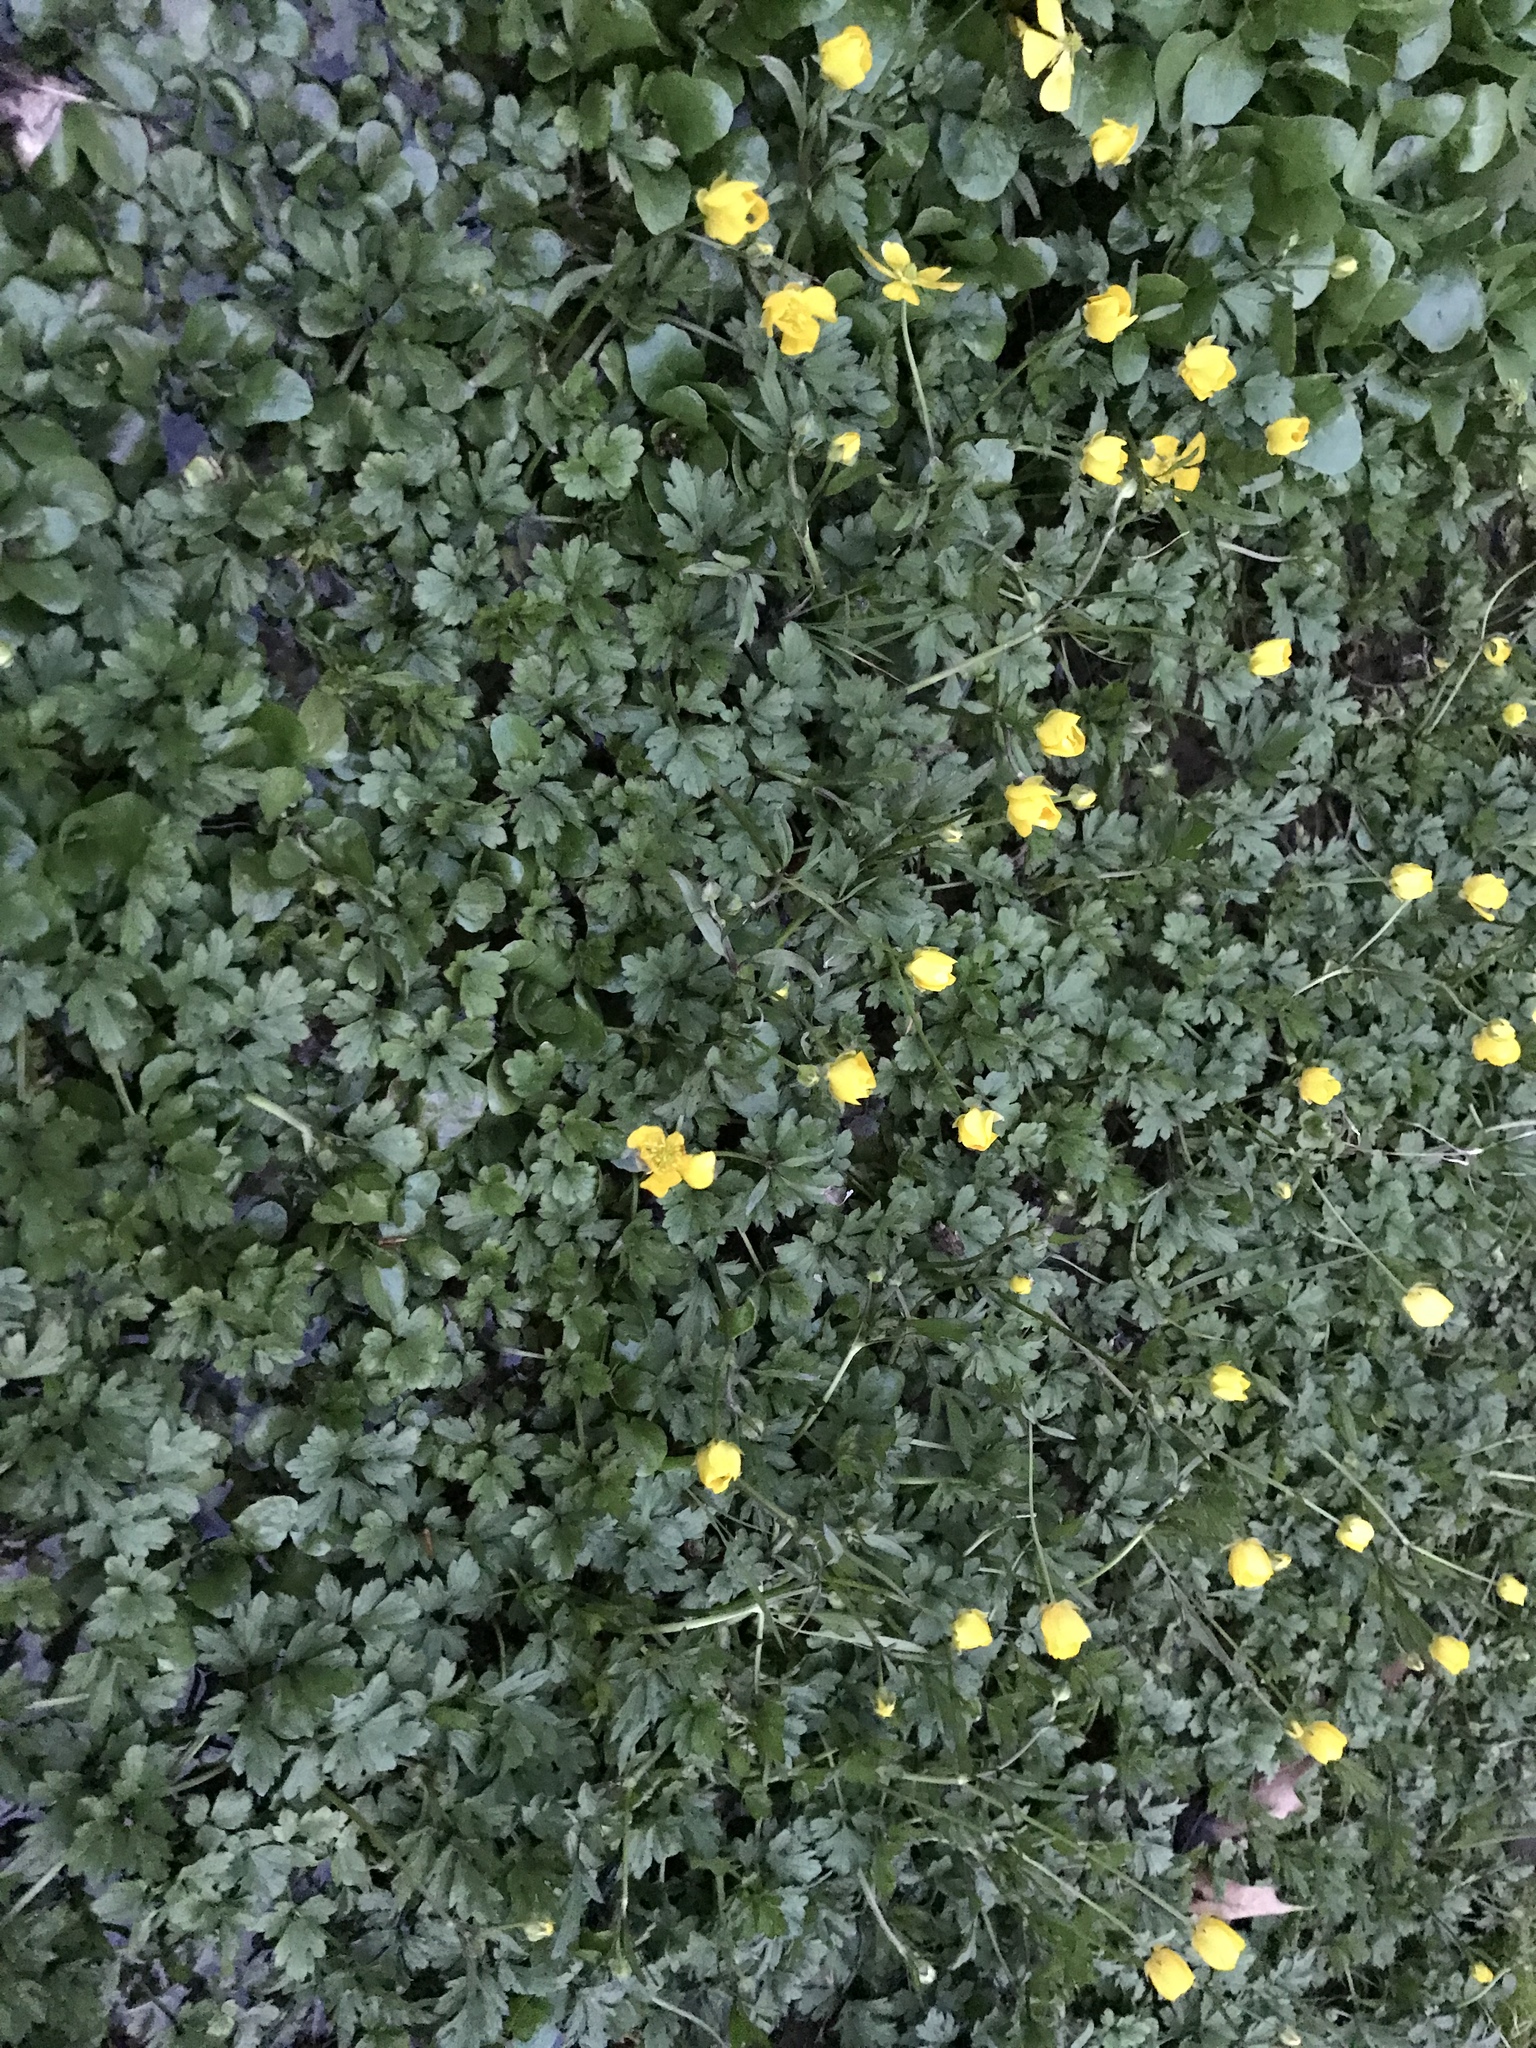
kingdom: Plantae
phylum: Tracheophyta
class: Magnoliopsida
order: Ranunculales
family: Ranunculaceae
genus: Ranunculus
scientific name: Ranunculus repens
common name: Creeping buttercup
